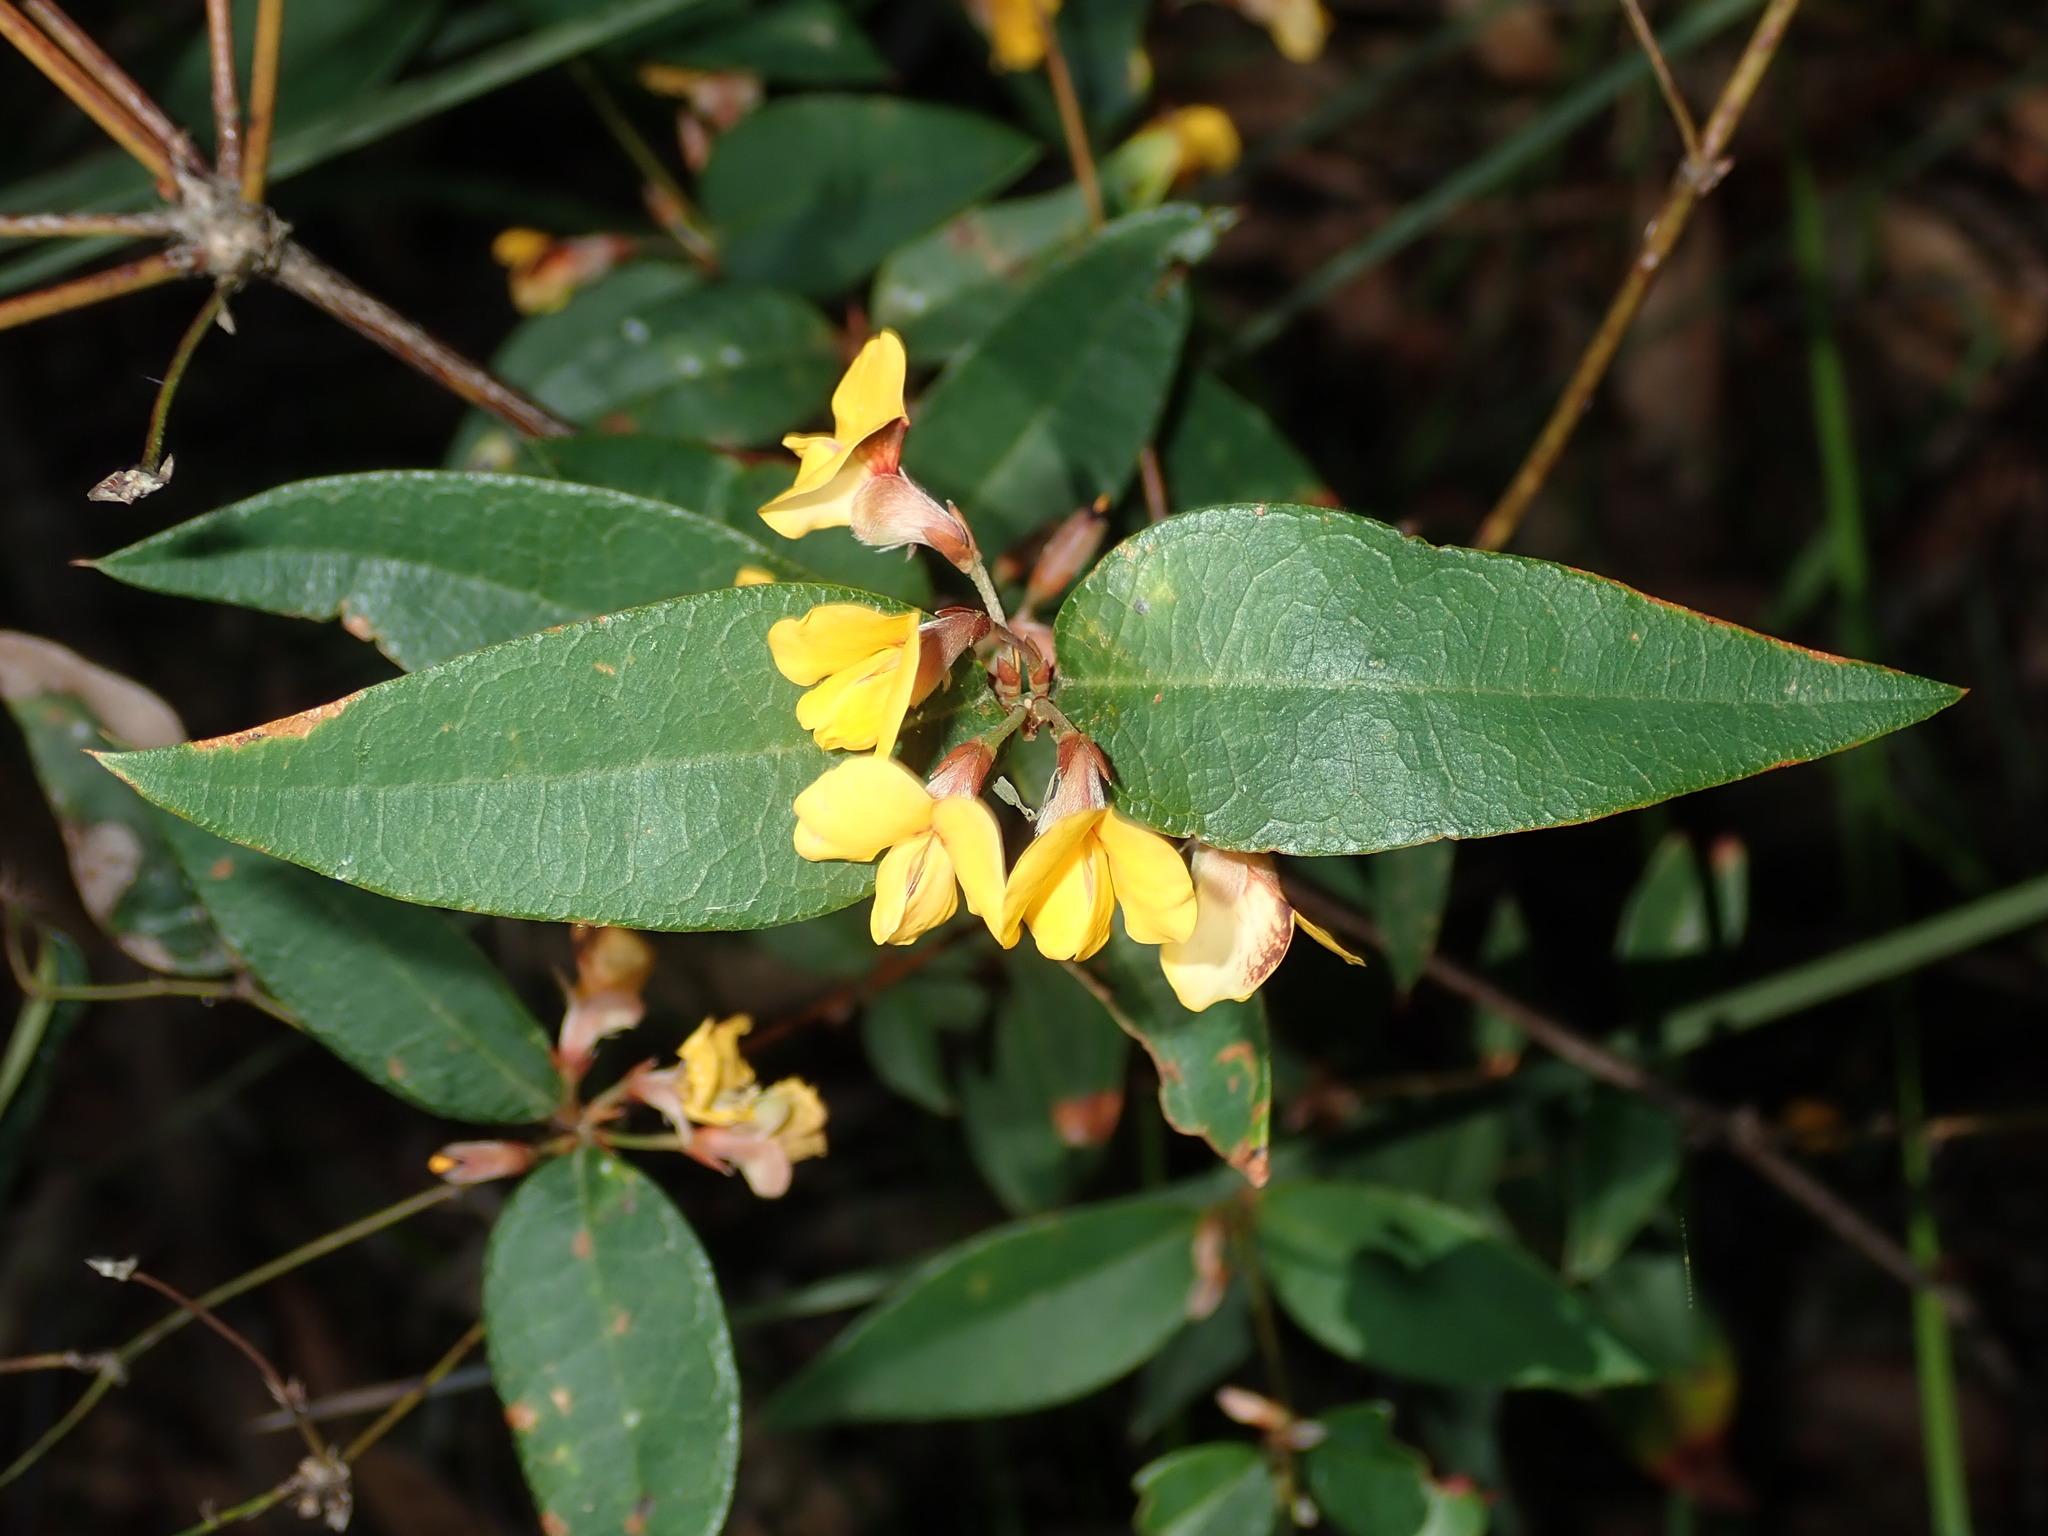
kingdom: Plantae
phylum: Tracheophyta
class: Magnoliopsida
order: Fabales
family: Fabaceae
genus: Platylobium
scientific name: Platylobium formosum
